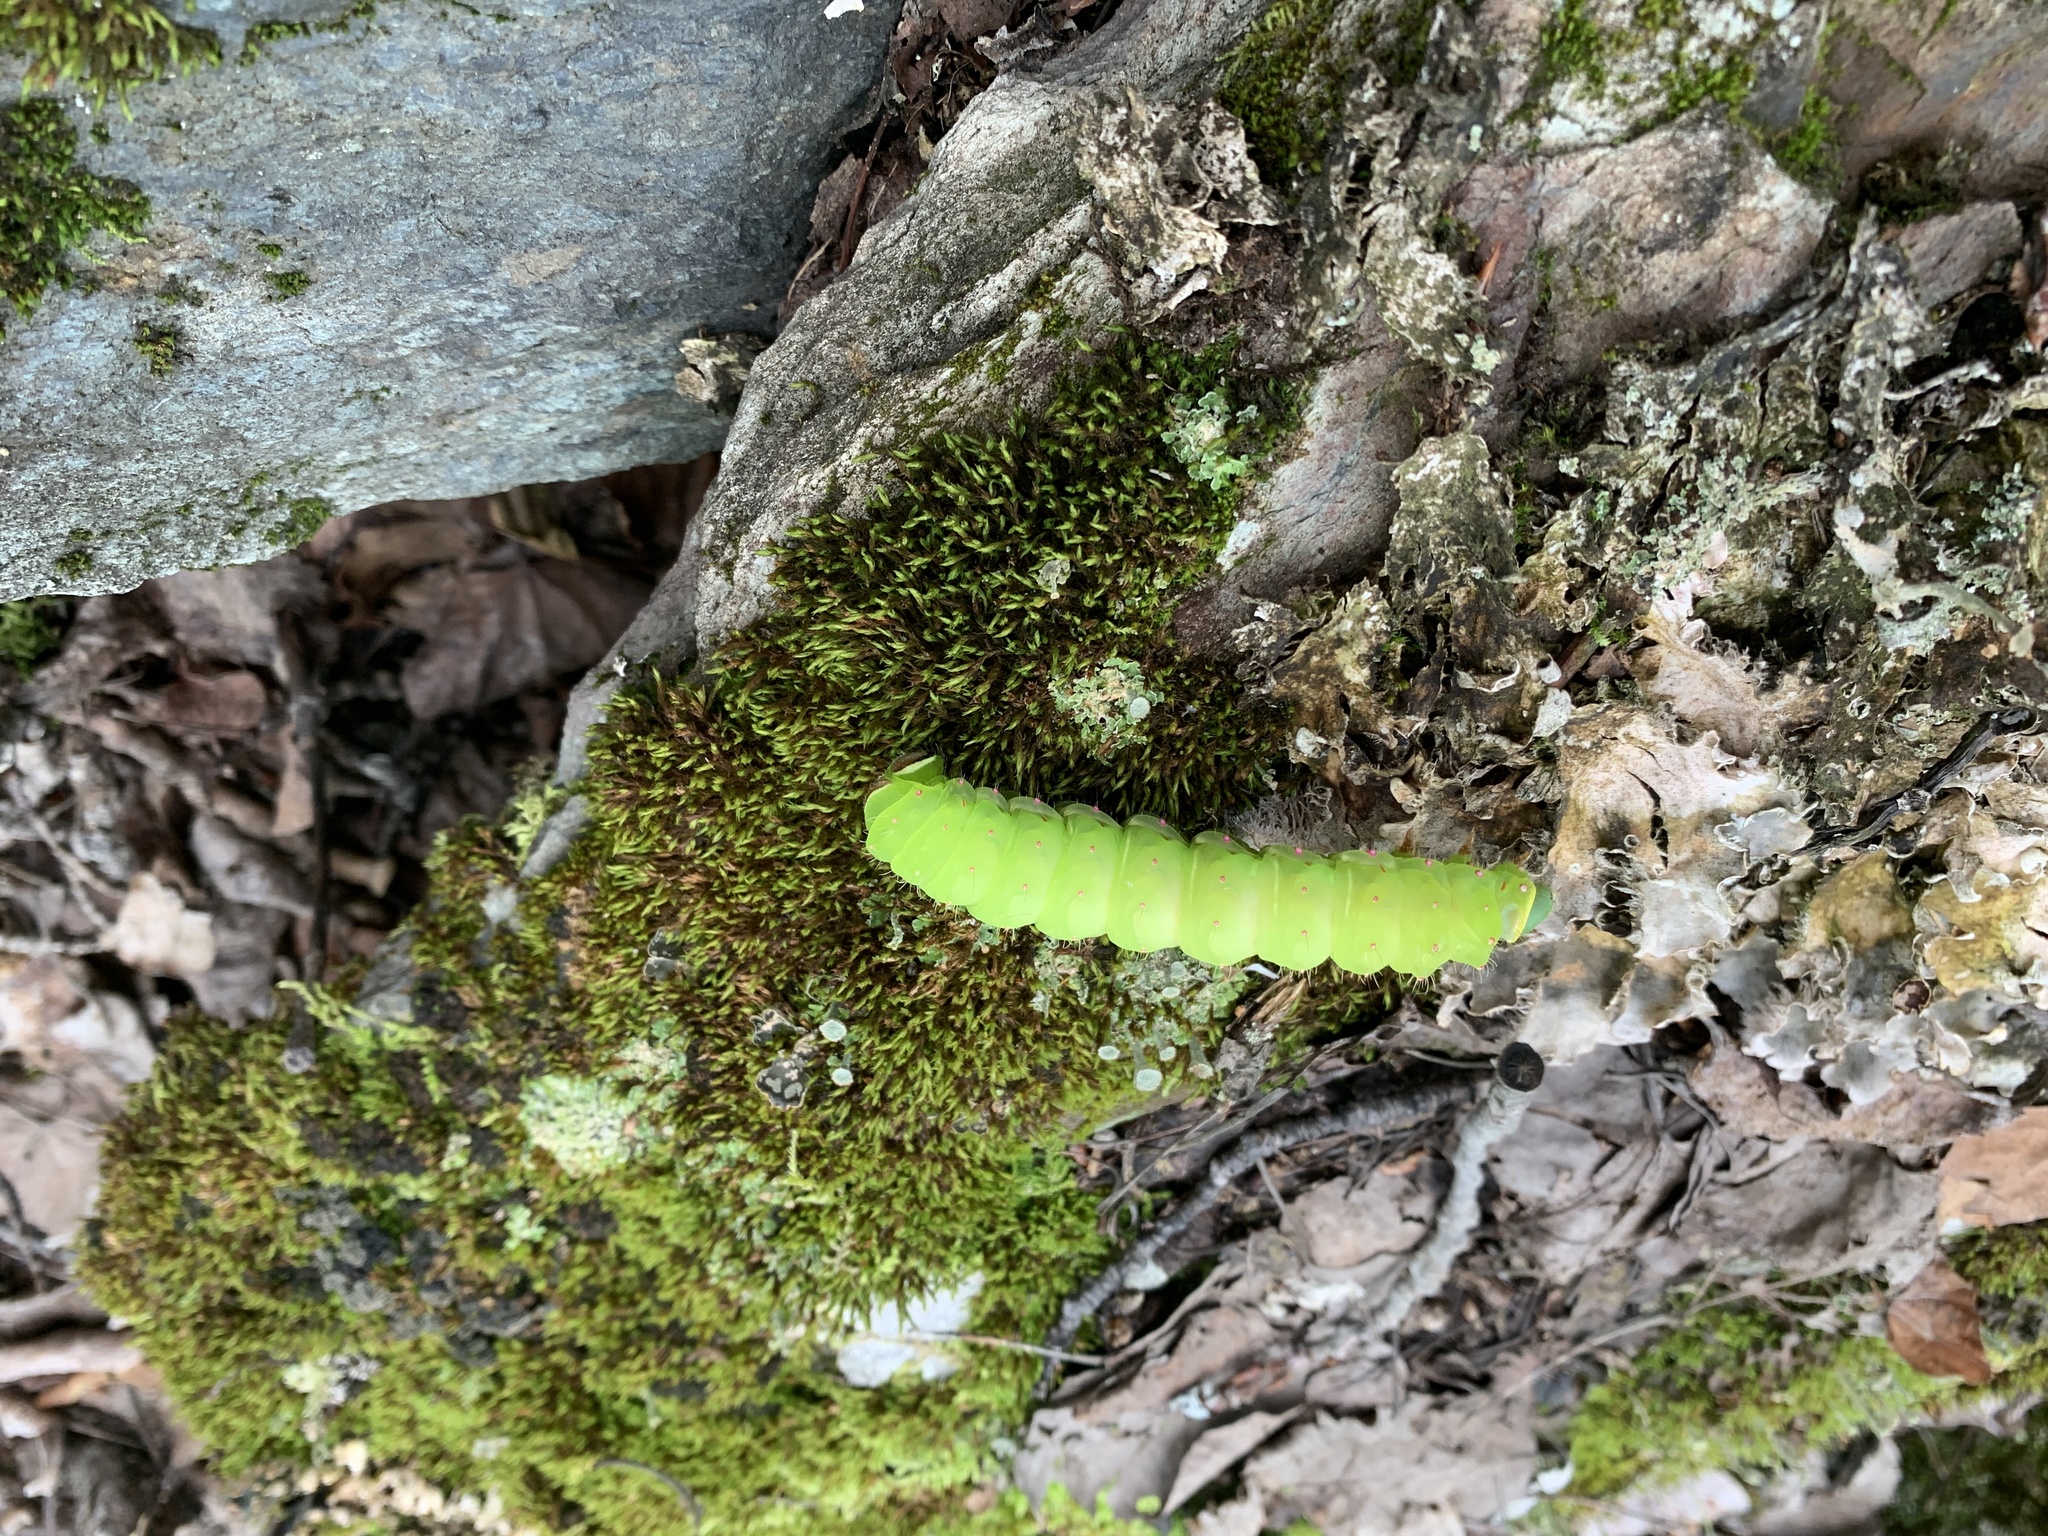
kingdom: Animalia
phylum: Arthropoda
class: Insecta
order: Lepidoptera
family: Saturniidae
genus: Actias
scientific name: Actias luna
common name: Luna moth
